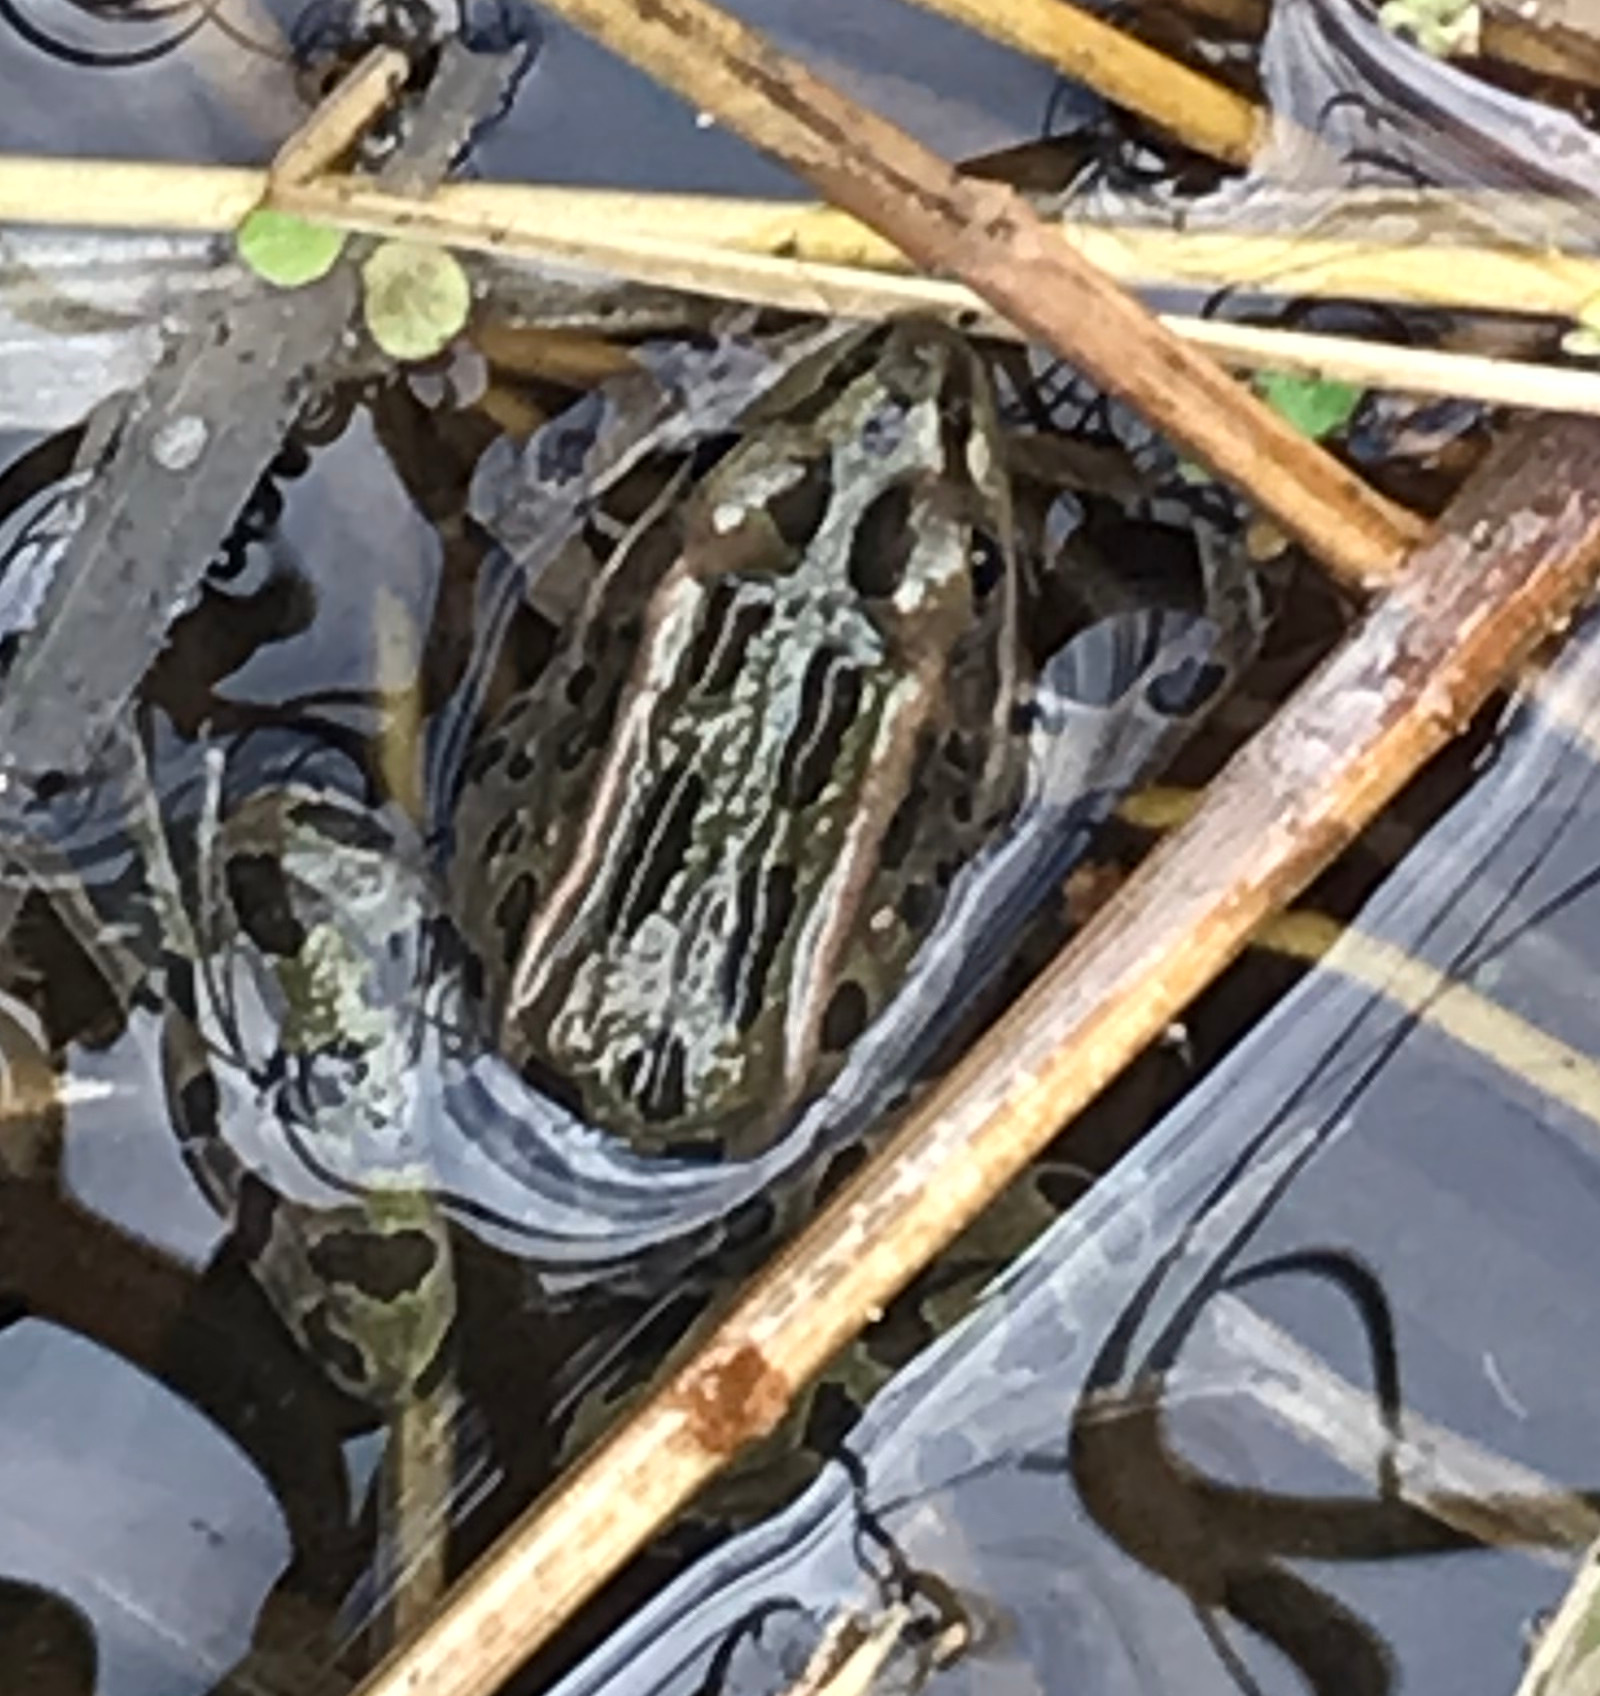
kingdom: Animalia
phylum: Chordata
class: Amphibia
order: Anura
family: Ranidae
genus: Lithobates
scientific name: Lithobates pipiens
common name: Northern leopard frog
